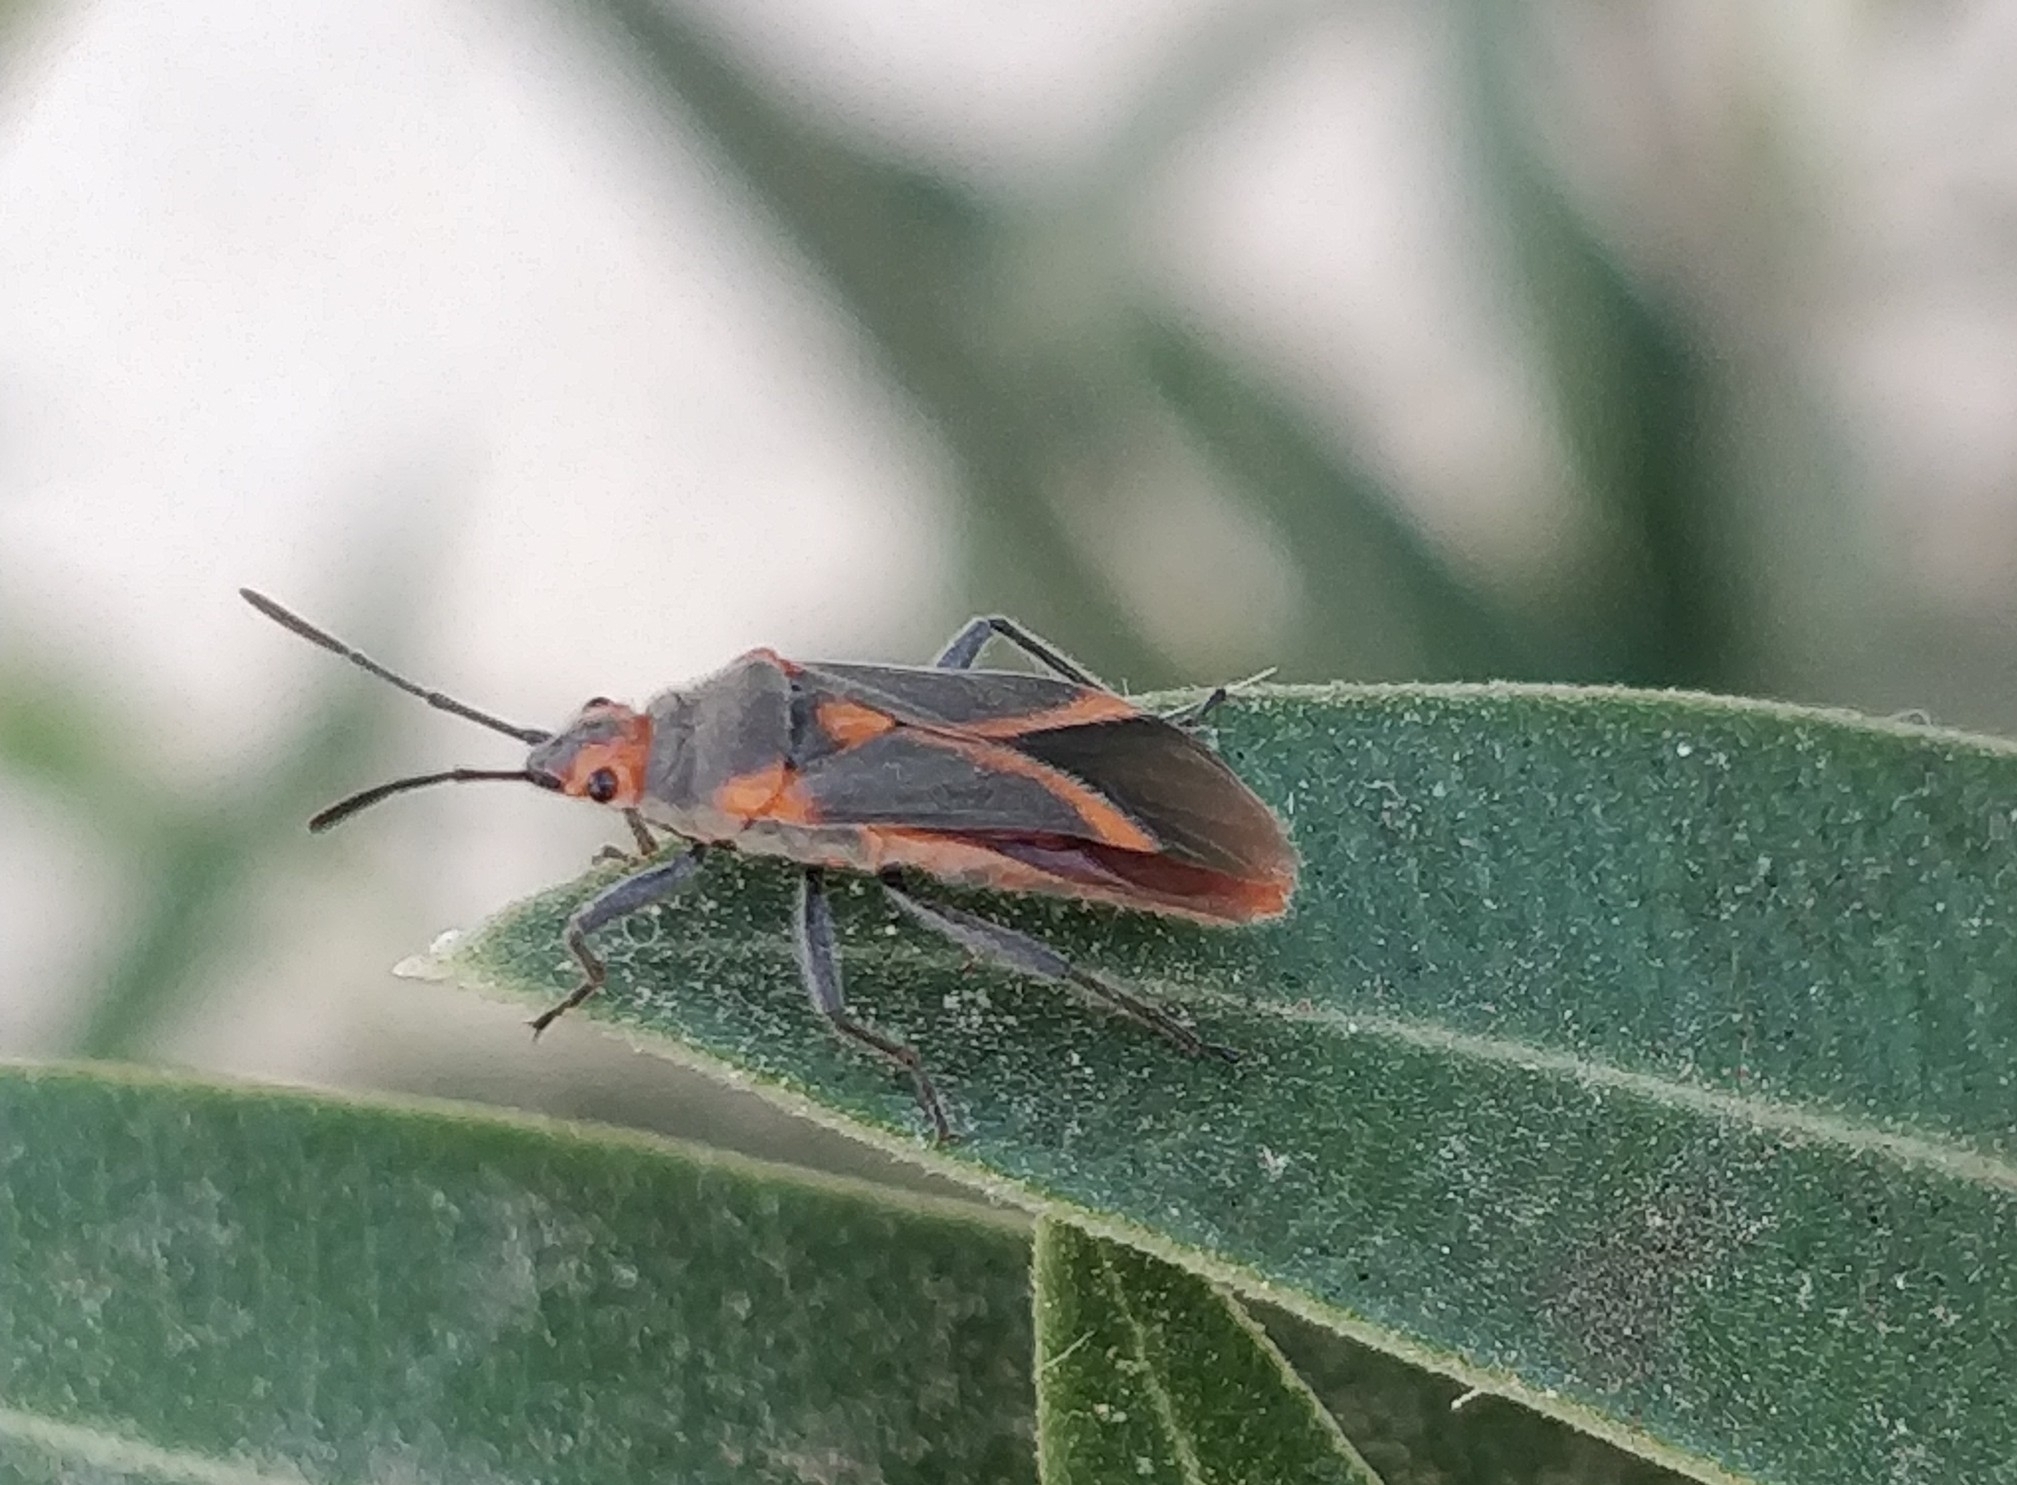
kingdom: Animalia
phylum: Arthropoda
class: Insecta
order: Hemiptera
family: Lygaeidae
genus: Caenocoris
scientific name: Caenocoris nerii
